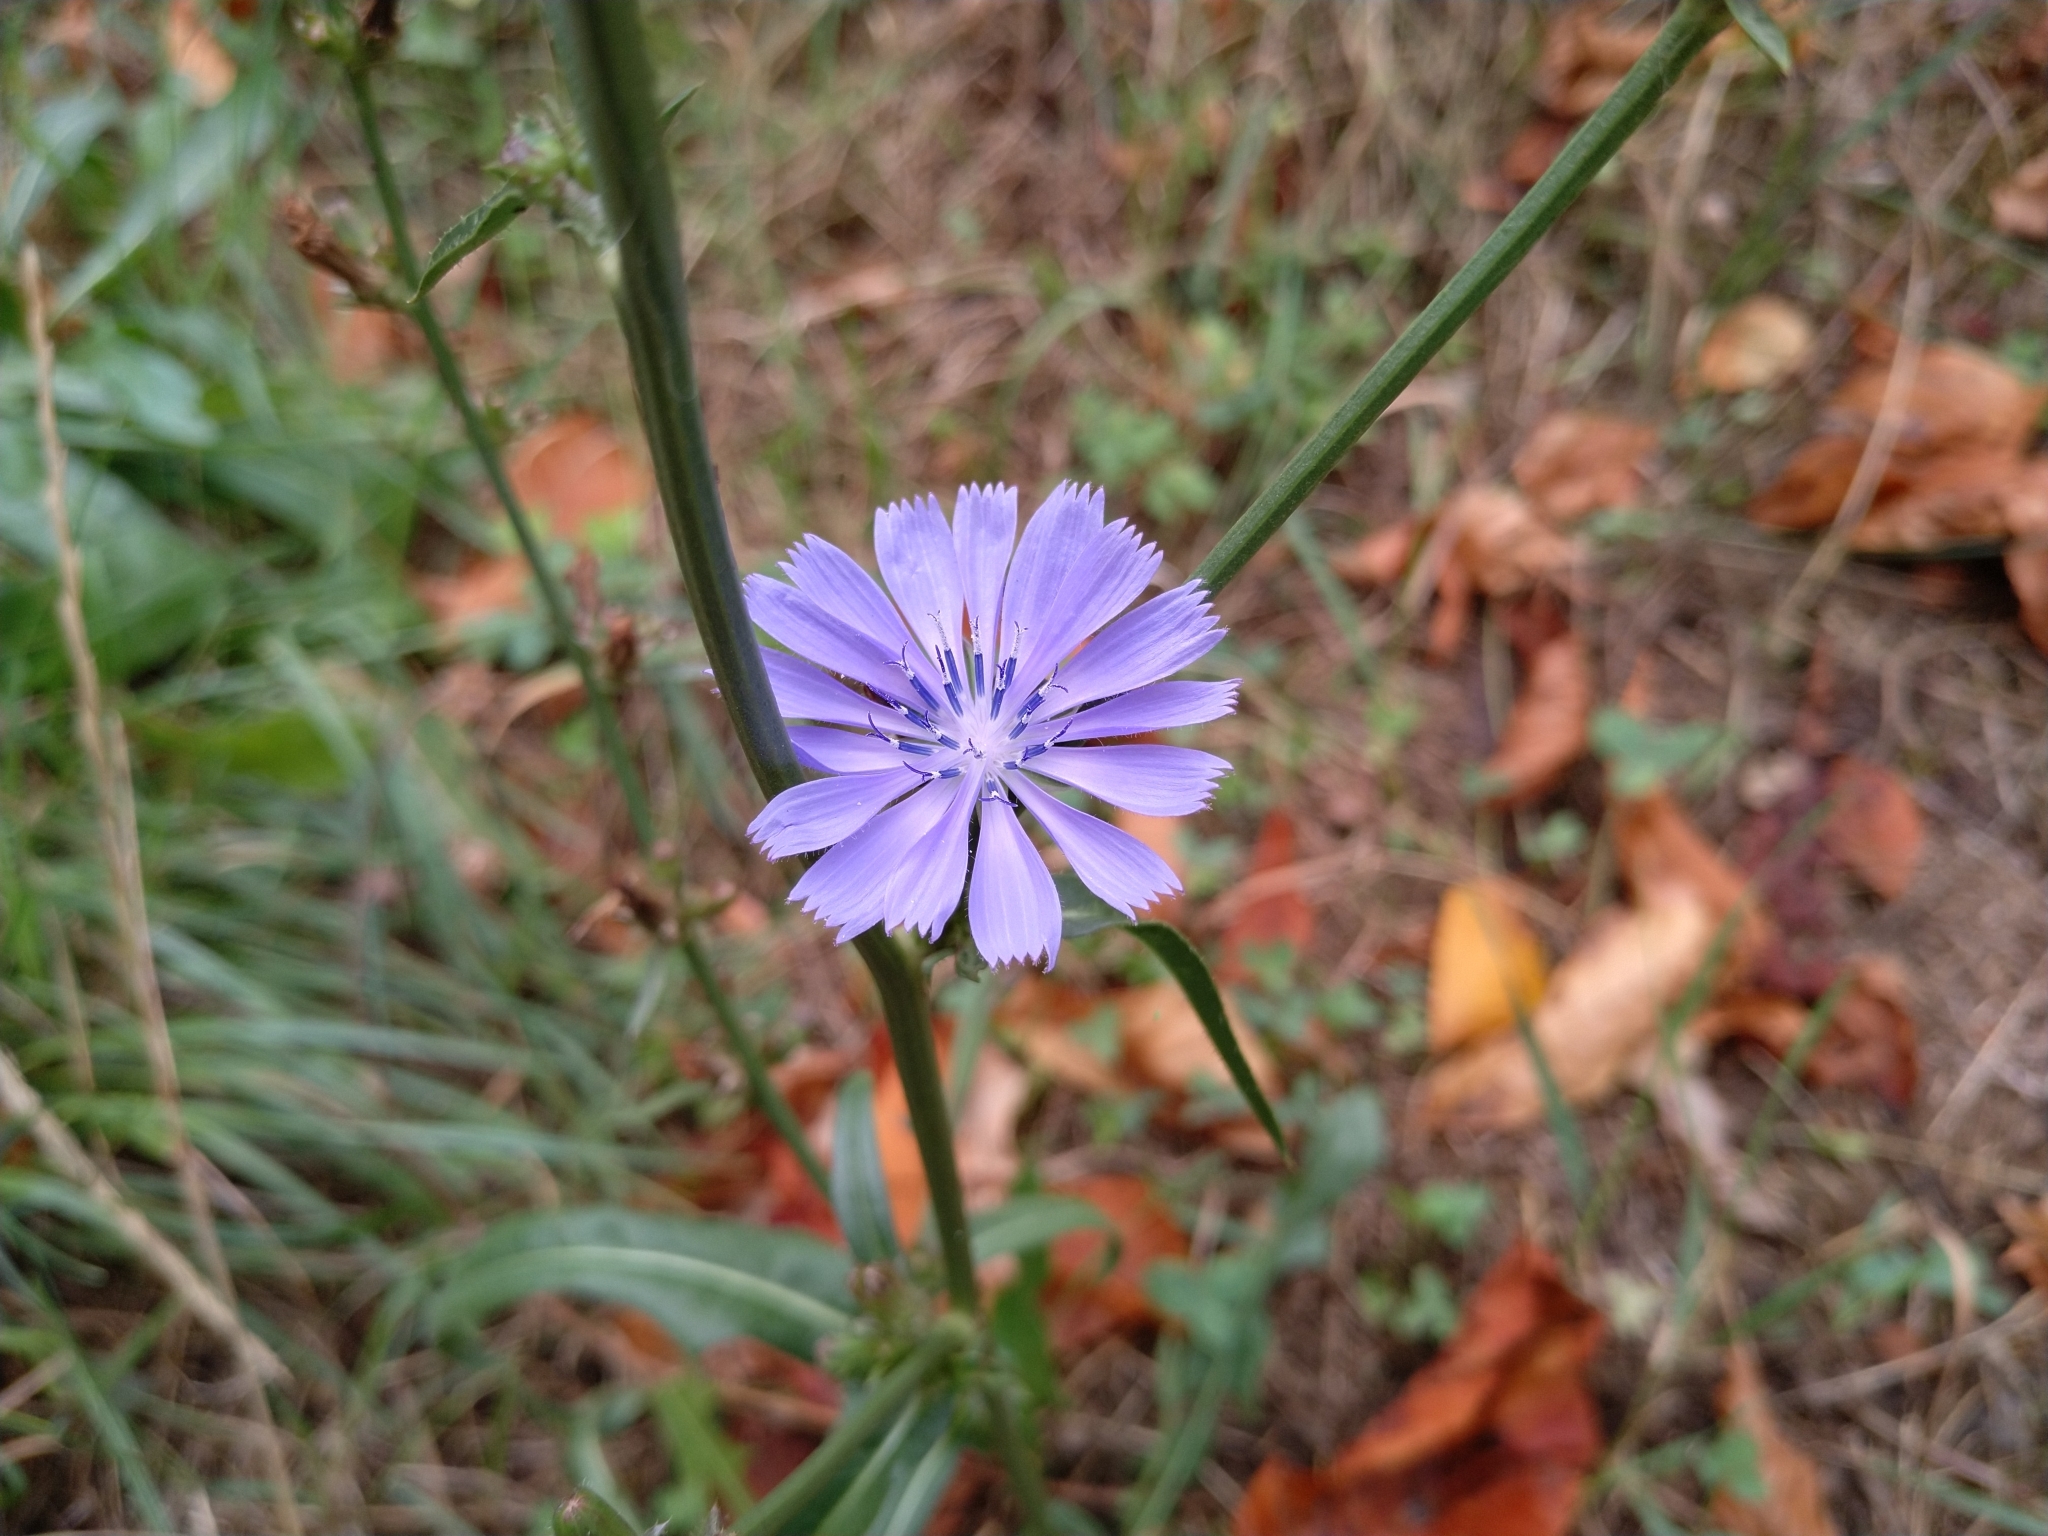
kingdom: Plantae
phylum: Tracheophyta
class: Magnoliopsida
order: Asterales
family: Asteraceae
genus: Cichorium
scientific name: Cichorium intybus
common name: Chicory
